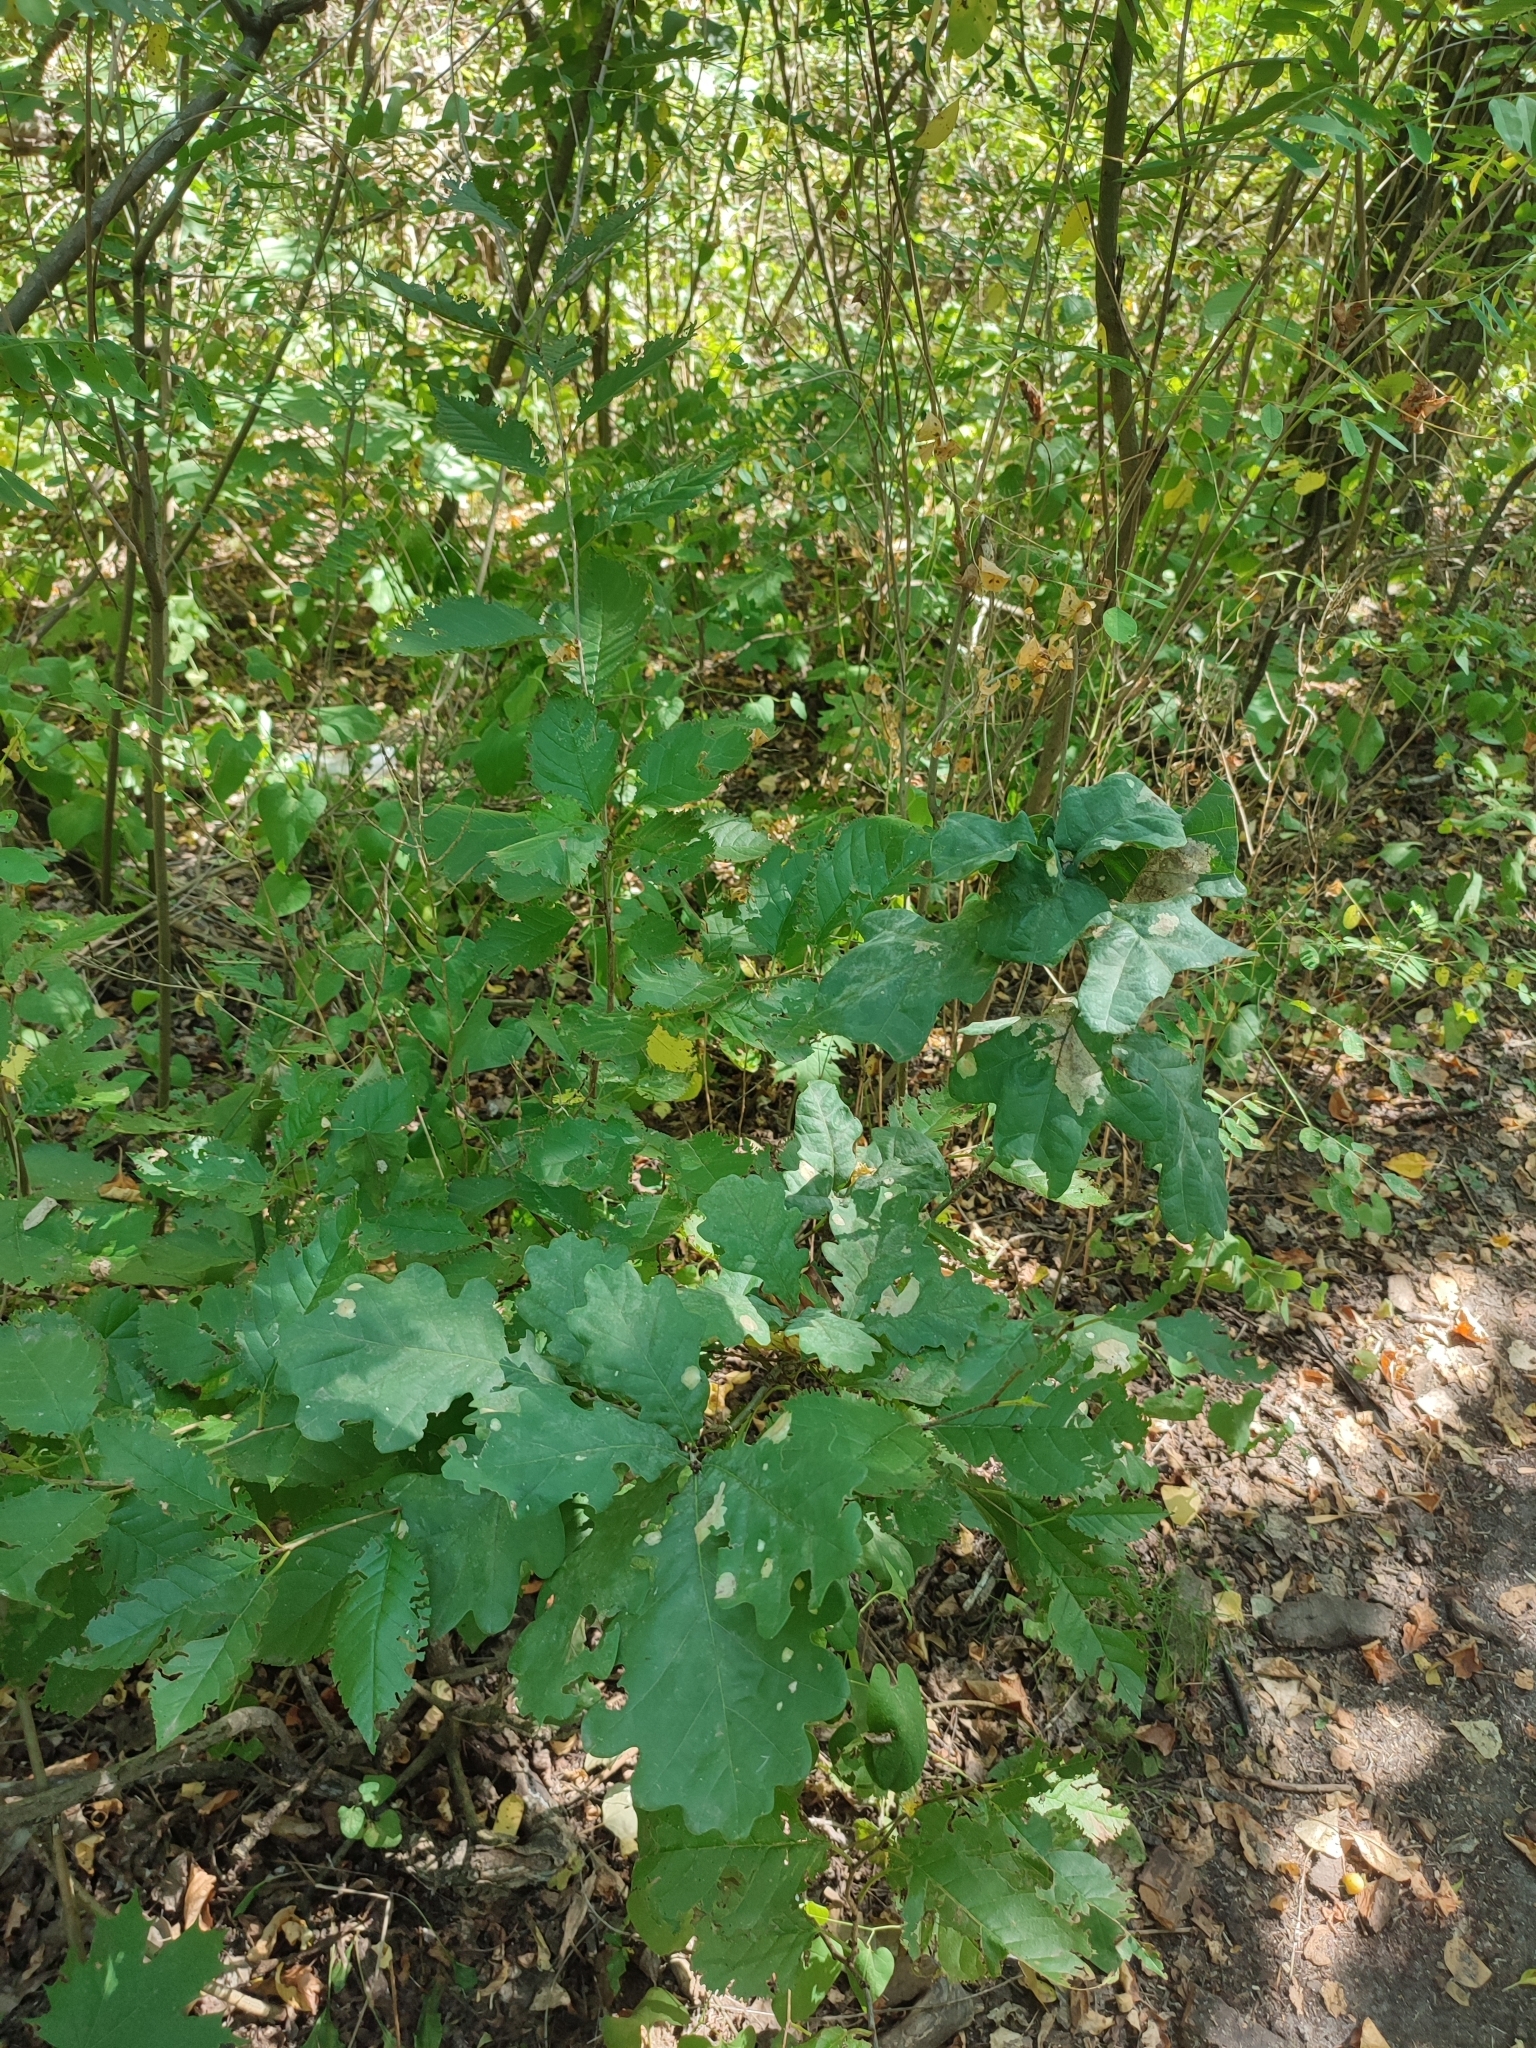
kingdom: Plantae
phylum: Tracheophyta
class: Magnoliopsida
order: Fagales
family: Fagaceae
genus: Quercus
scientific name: Quercus robur
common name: Pedunculate oak
